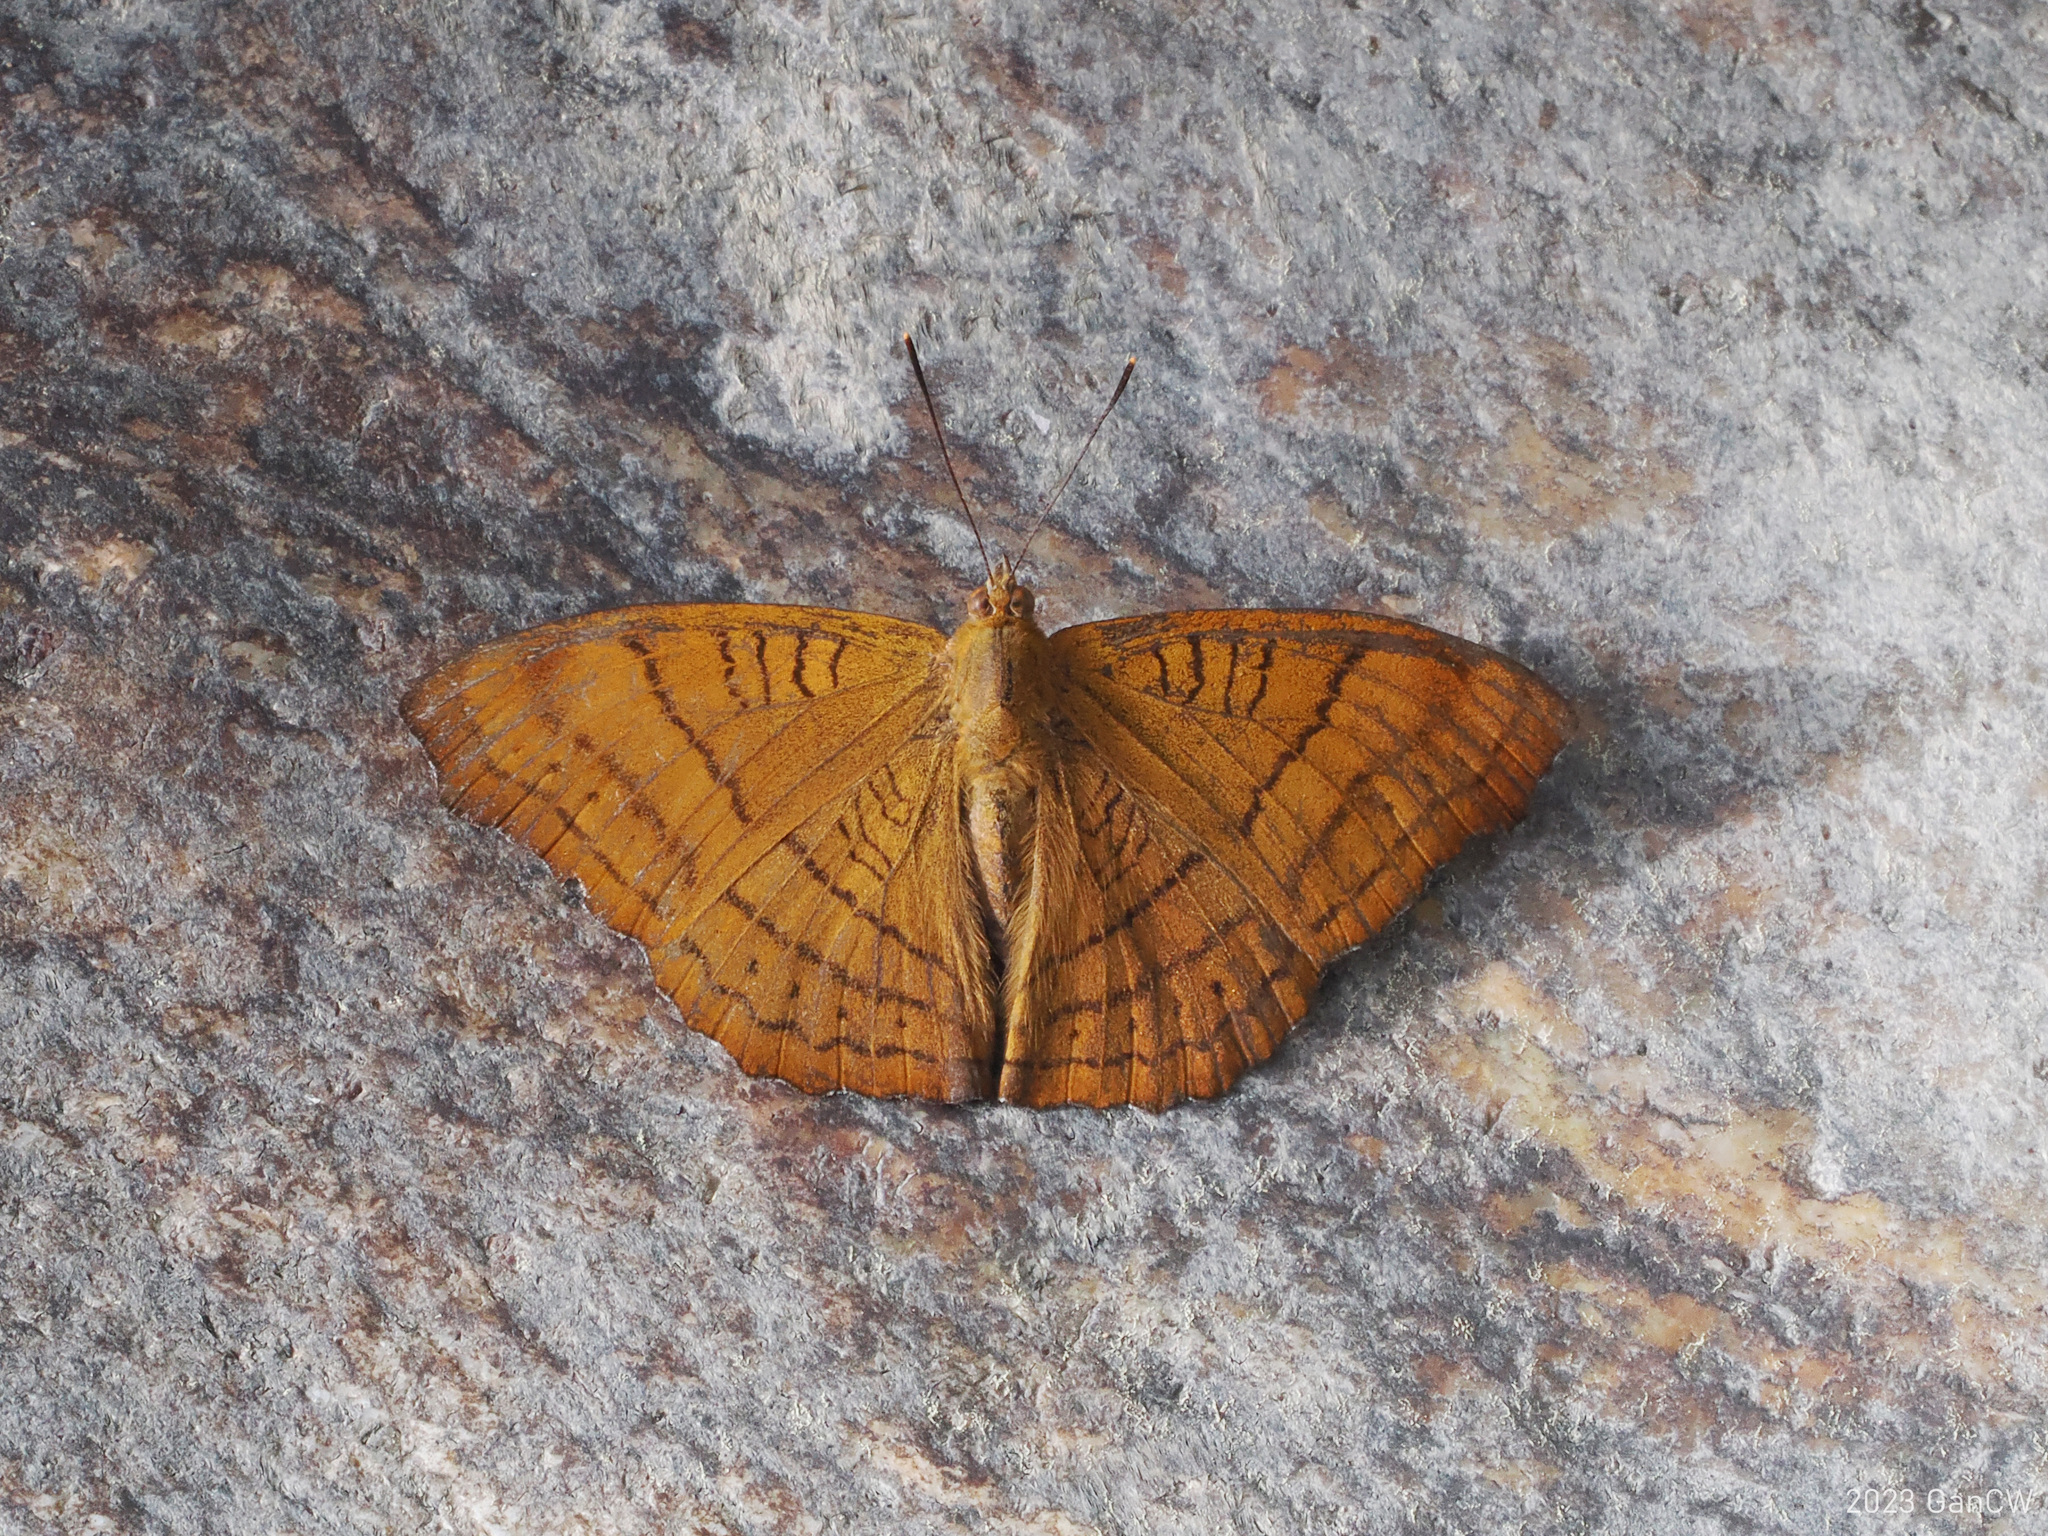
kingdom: Animalia
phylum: Arthropoda
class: Insecta
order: Lepidoptera
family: Nymphalidae
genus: Pseudergolis
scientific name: Pseudergolis wedah
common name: Tabby
